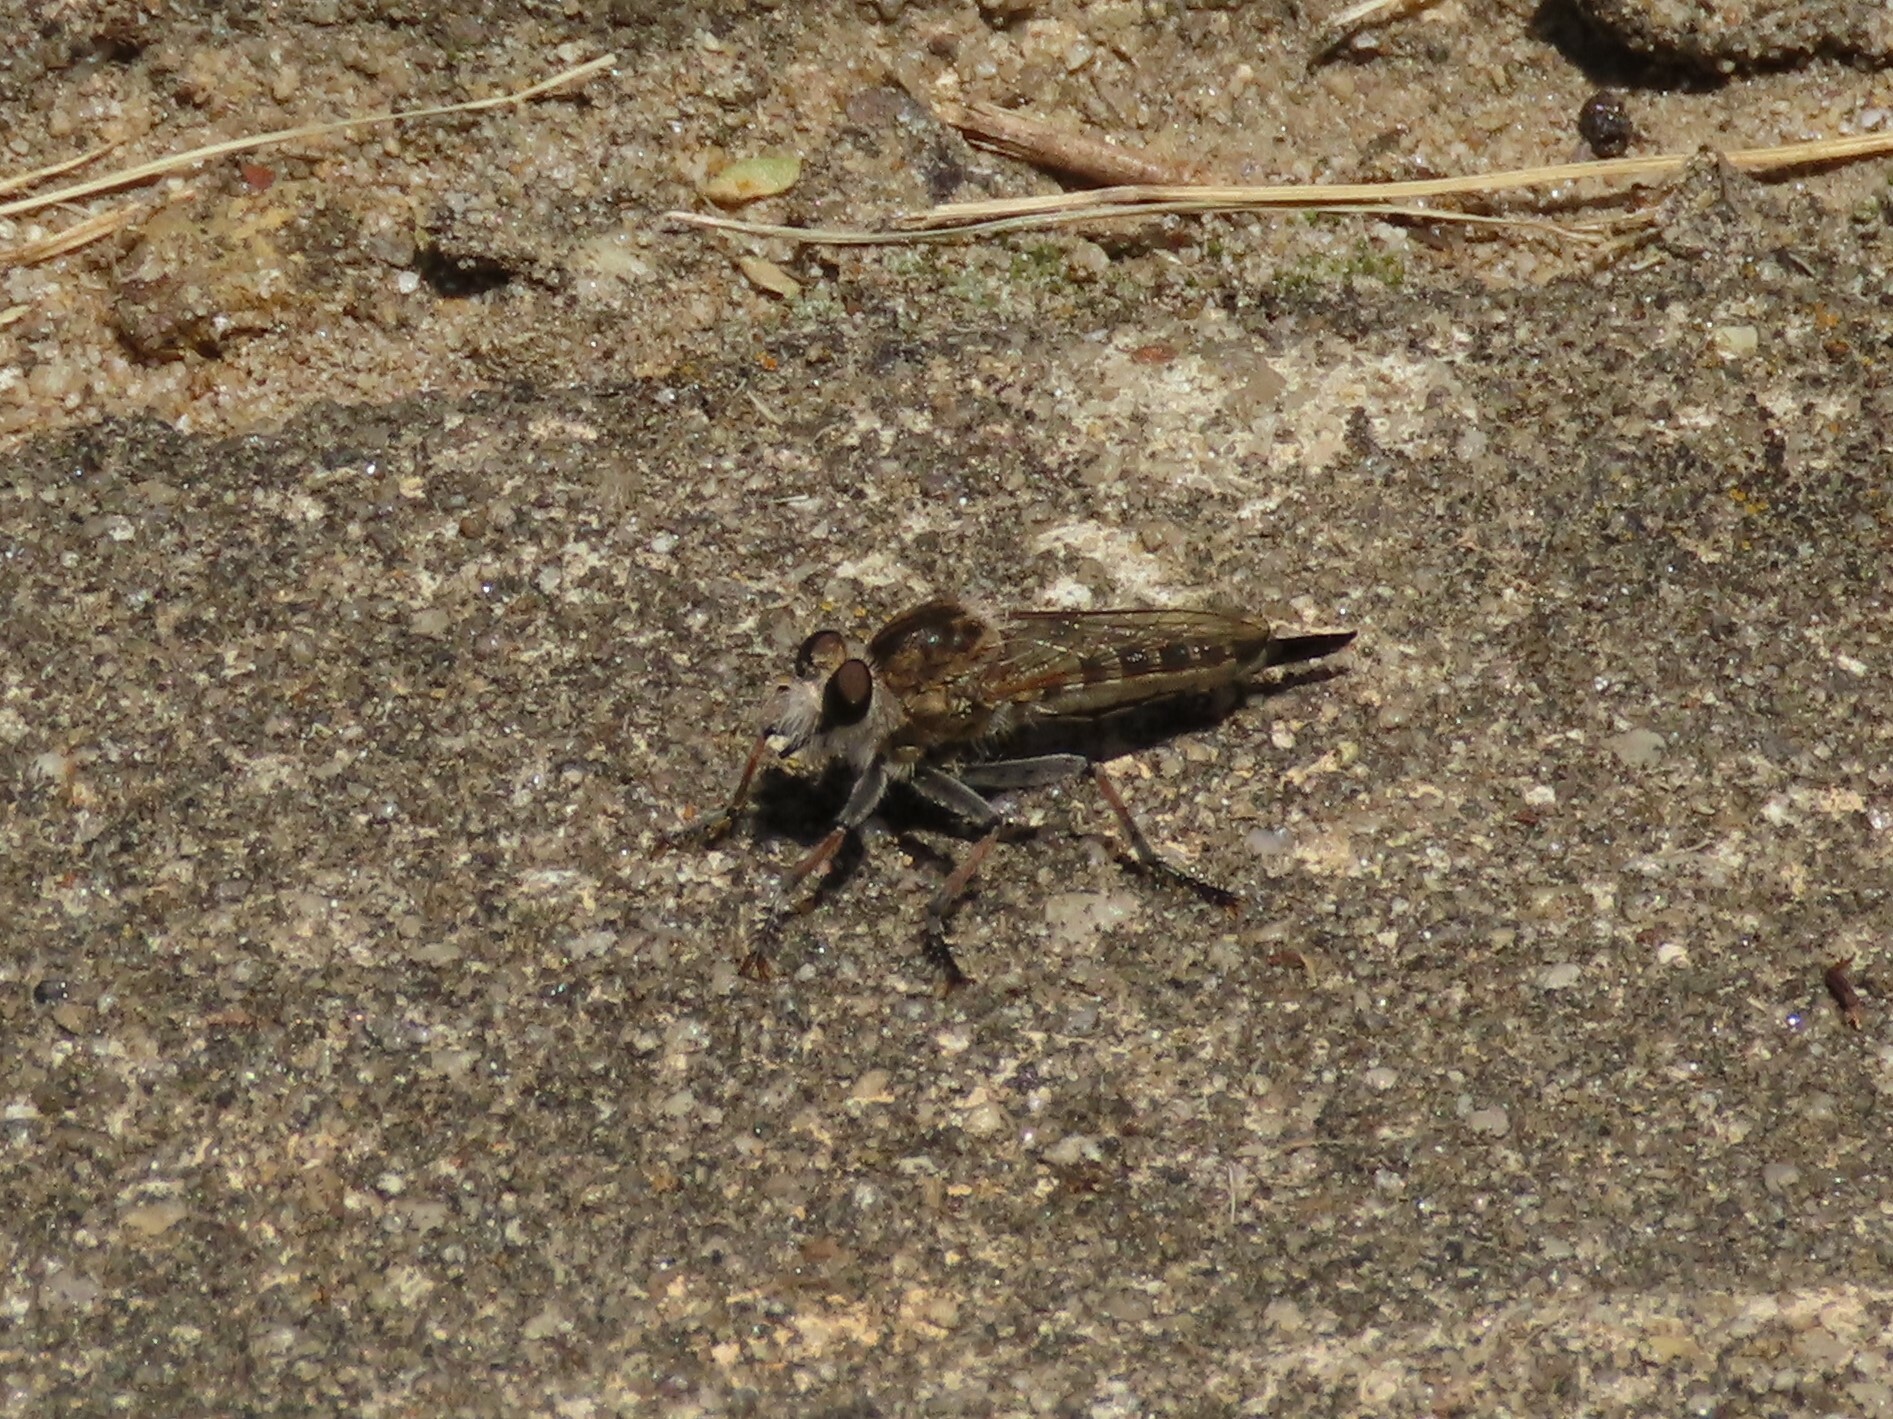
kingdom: Animalia
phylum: Arthropoda
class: Insecta
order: Diptera
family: Asilidae
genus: Efferia
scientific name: Efferia albibarbis
